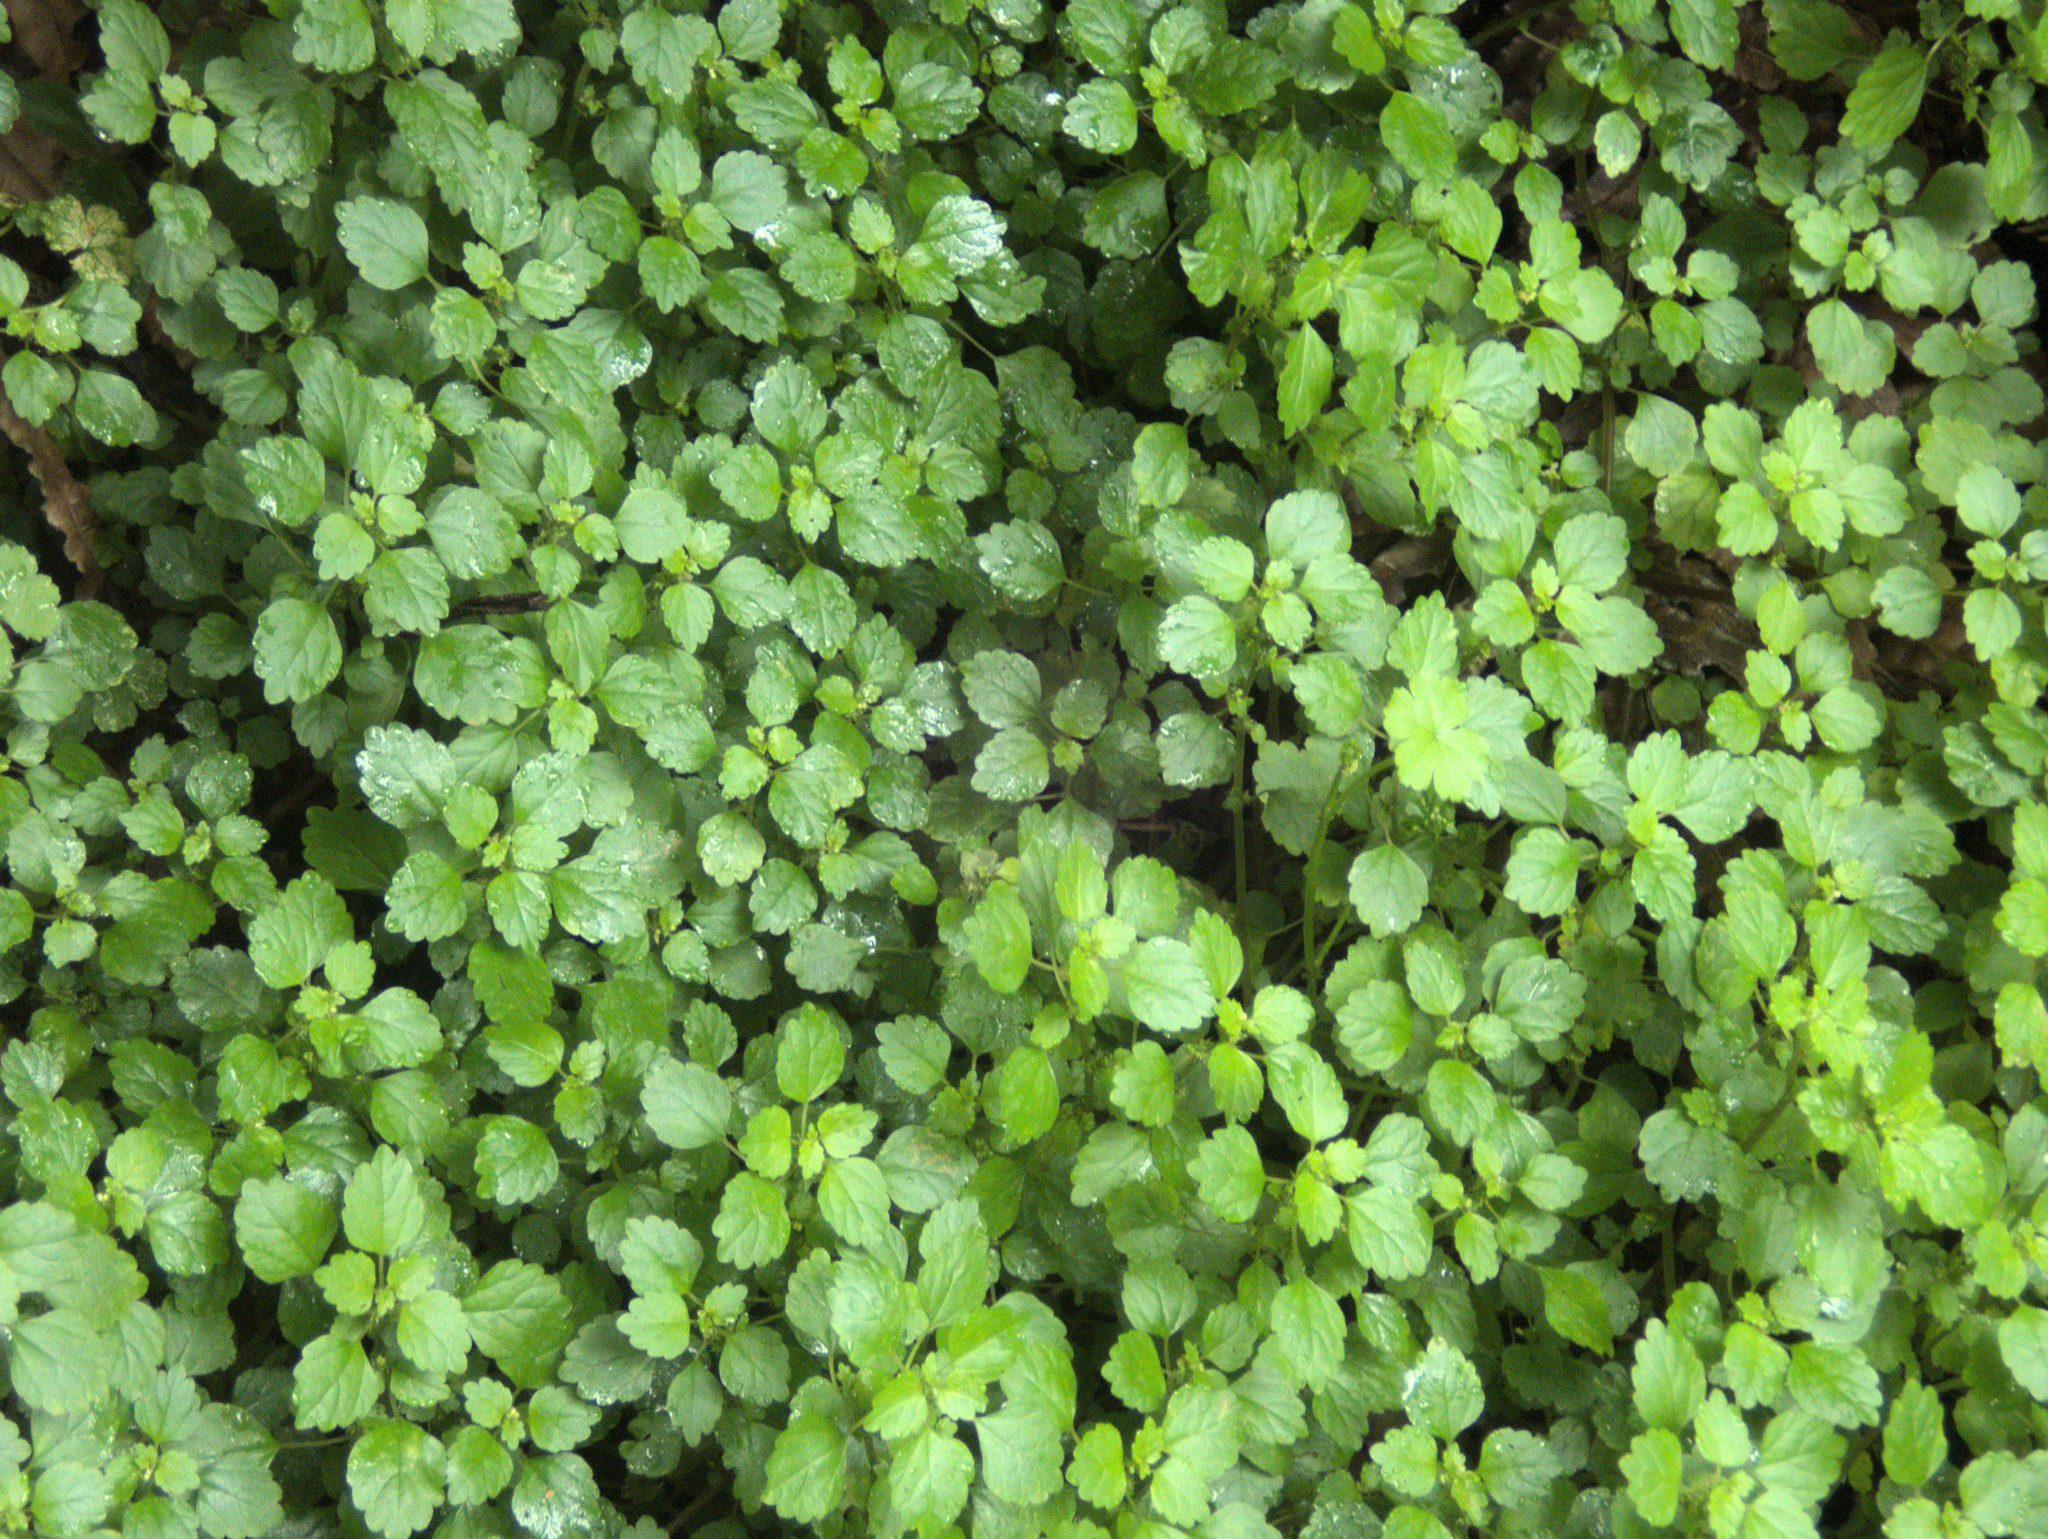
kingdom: Plantae
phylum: Tracheophyta
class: Magnoliopsida
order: Rosales
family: Urticaceae
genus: Australina
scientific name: Australina pusilla
